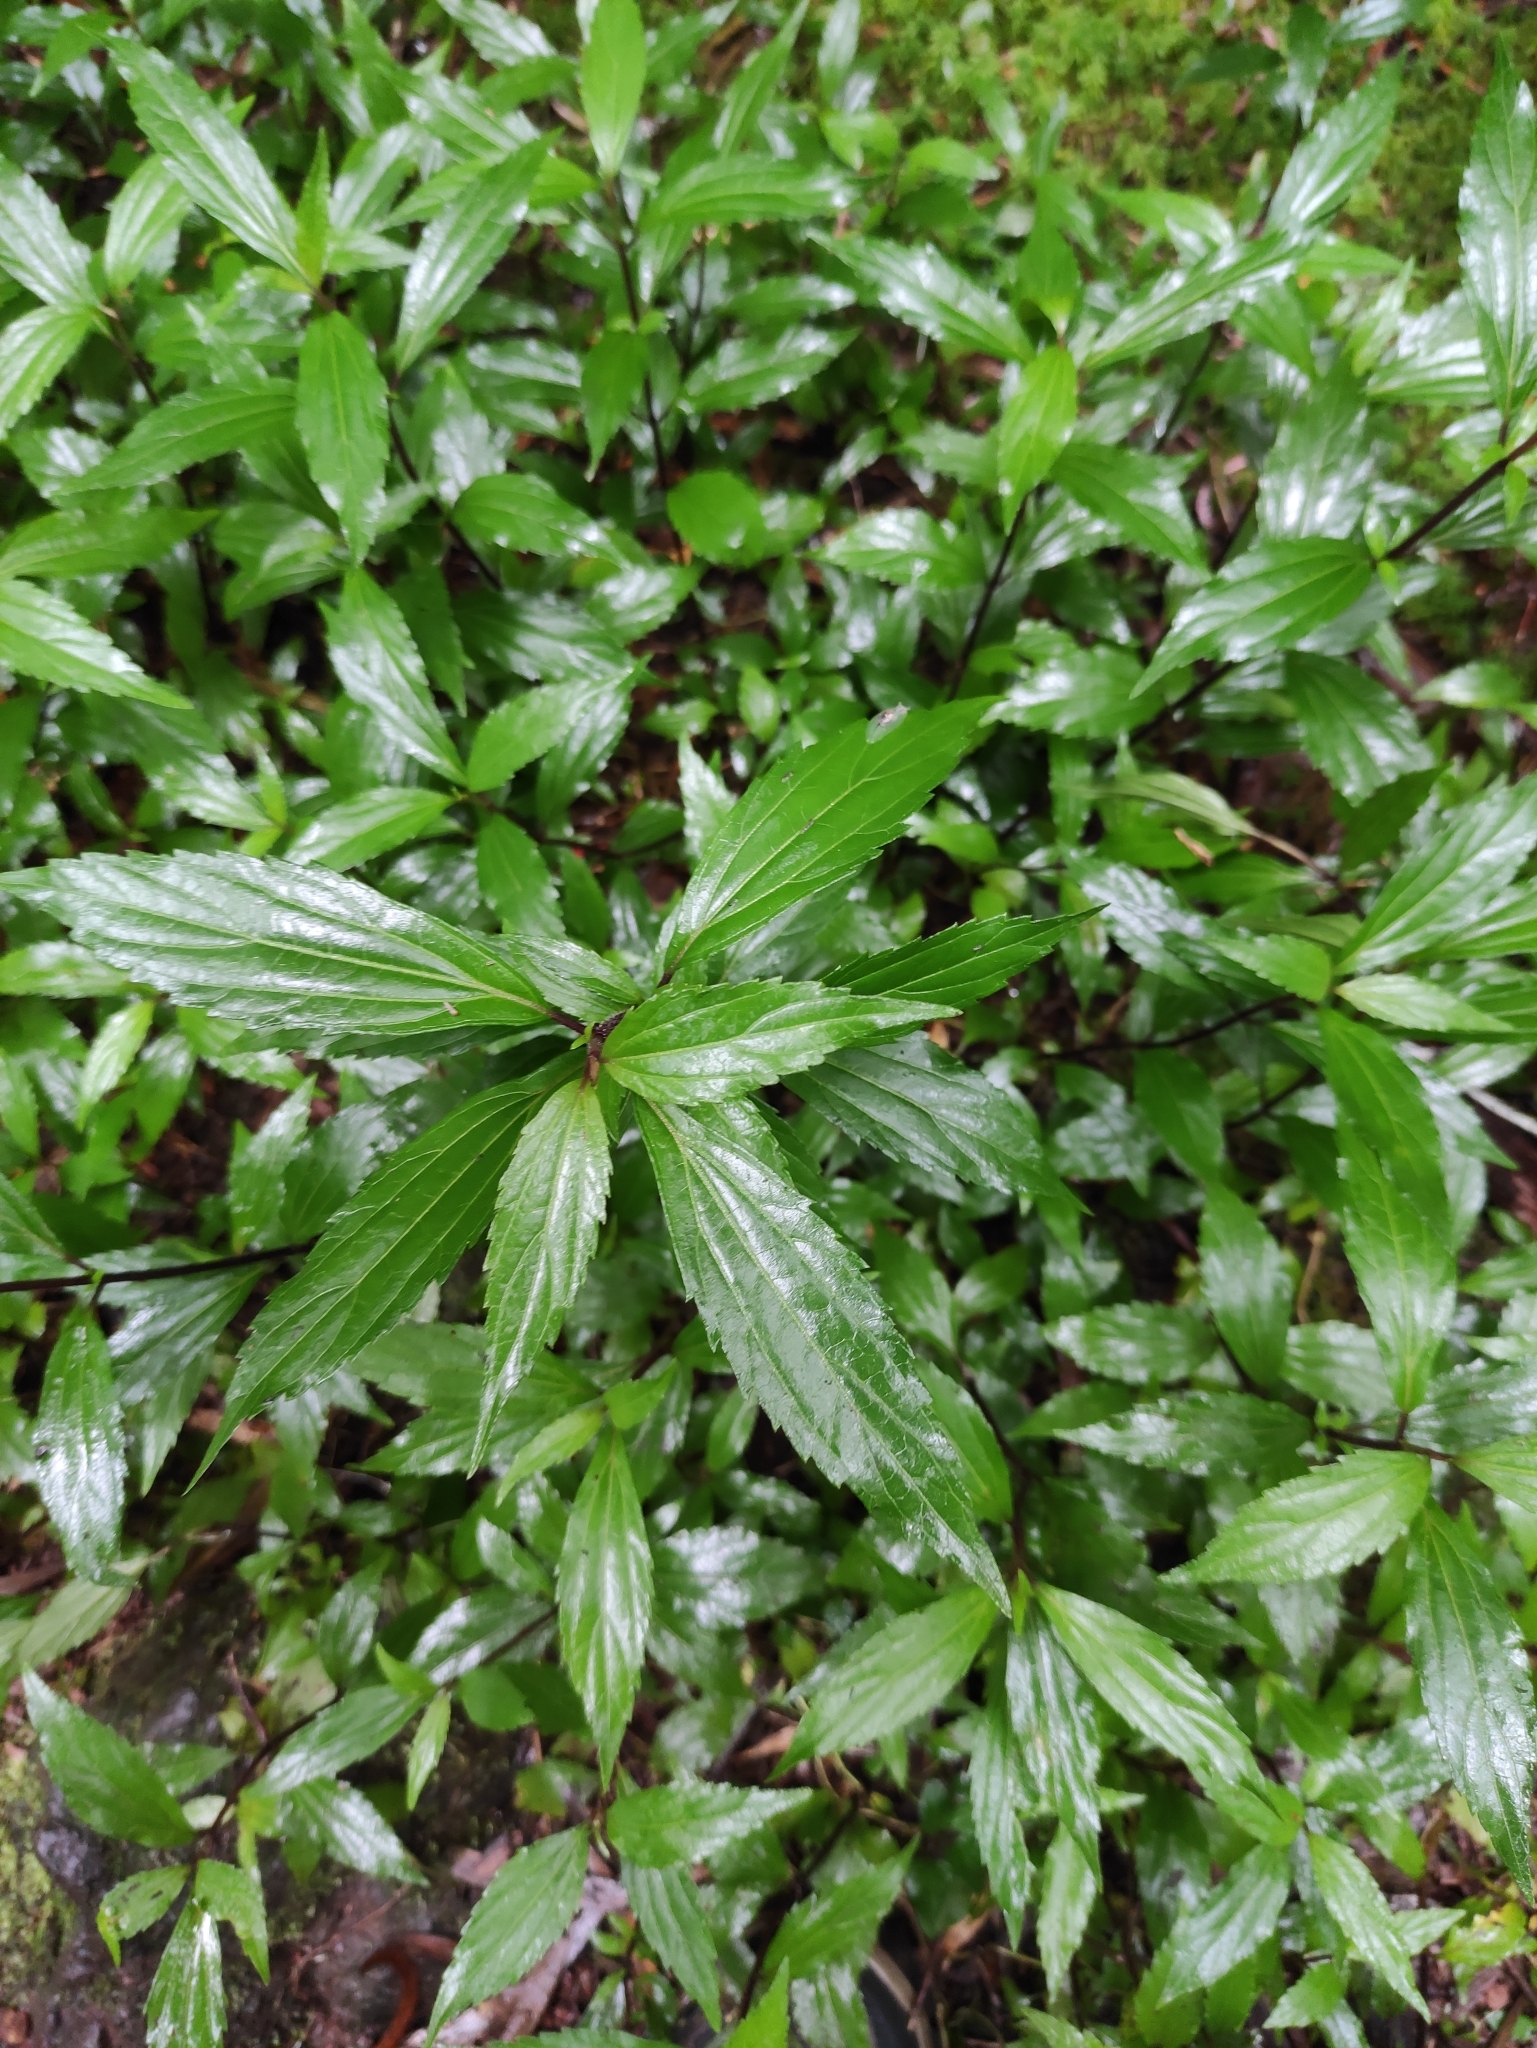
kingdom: Plantae
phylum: Tracheophyta
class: Magnoliopsida
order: Asterales
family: Asteraceae
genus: Ageratina
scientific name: Ageratina riparia
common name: Creeping croftonweed
